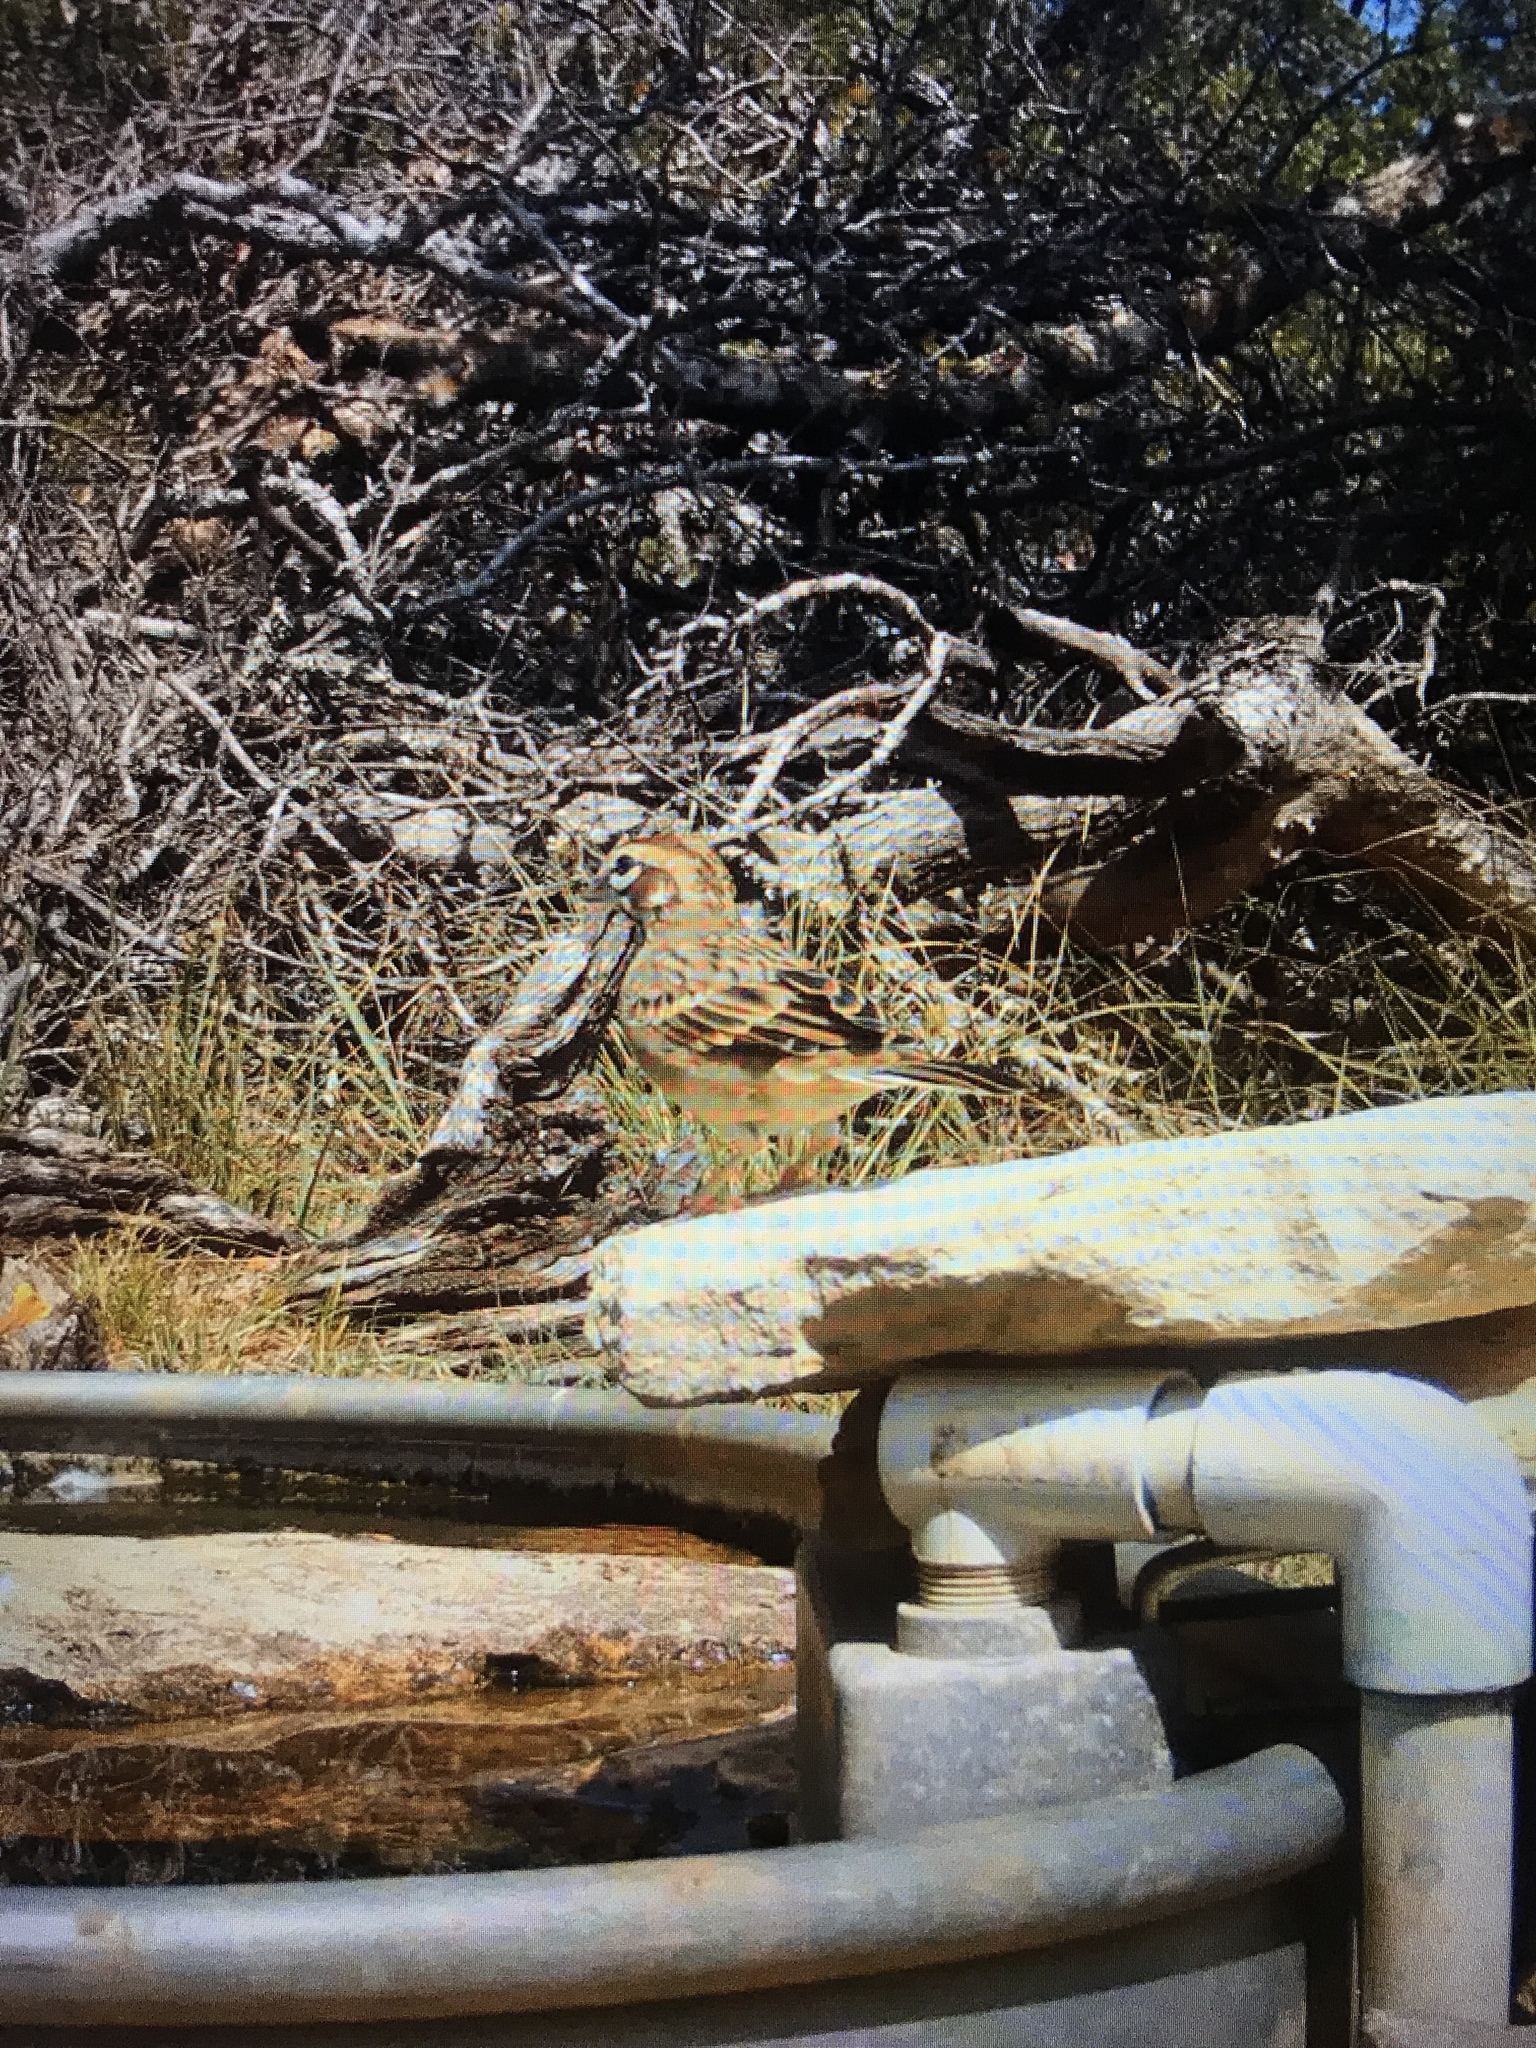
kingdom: Animalia
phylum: Chordata
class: Aves
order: Passeriformes
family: Passerellidae
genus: Chondestes
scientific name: Chondestes grammacus
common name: Lark sparrow
